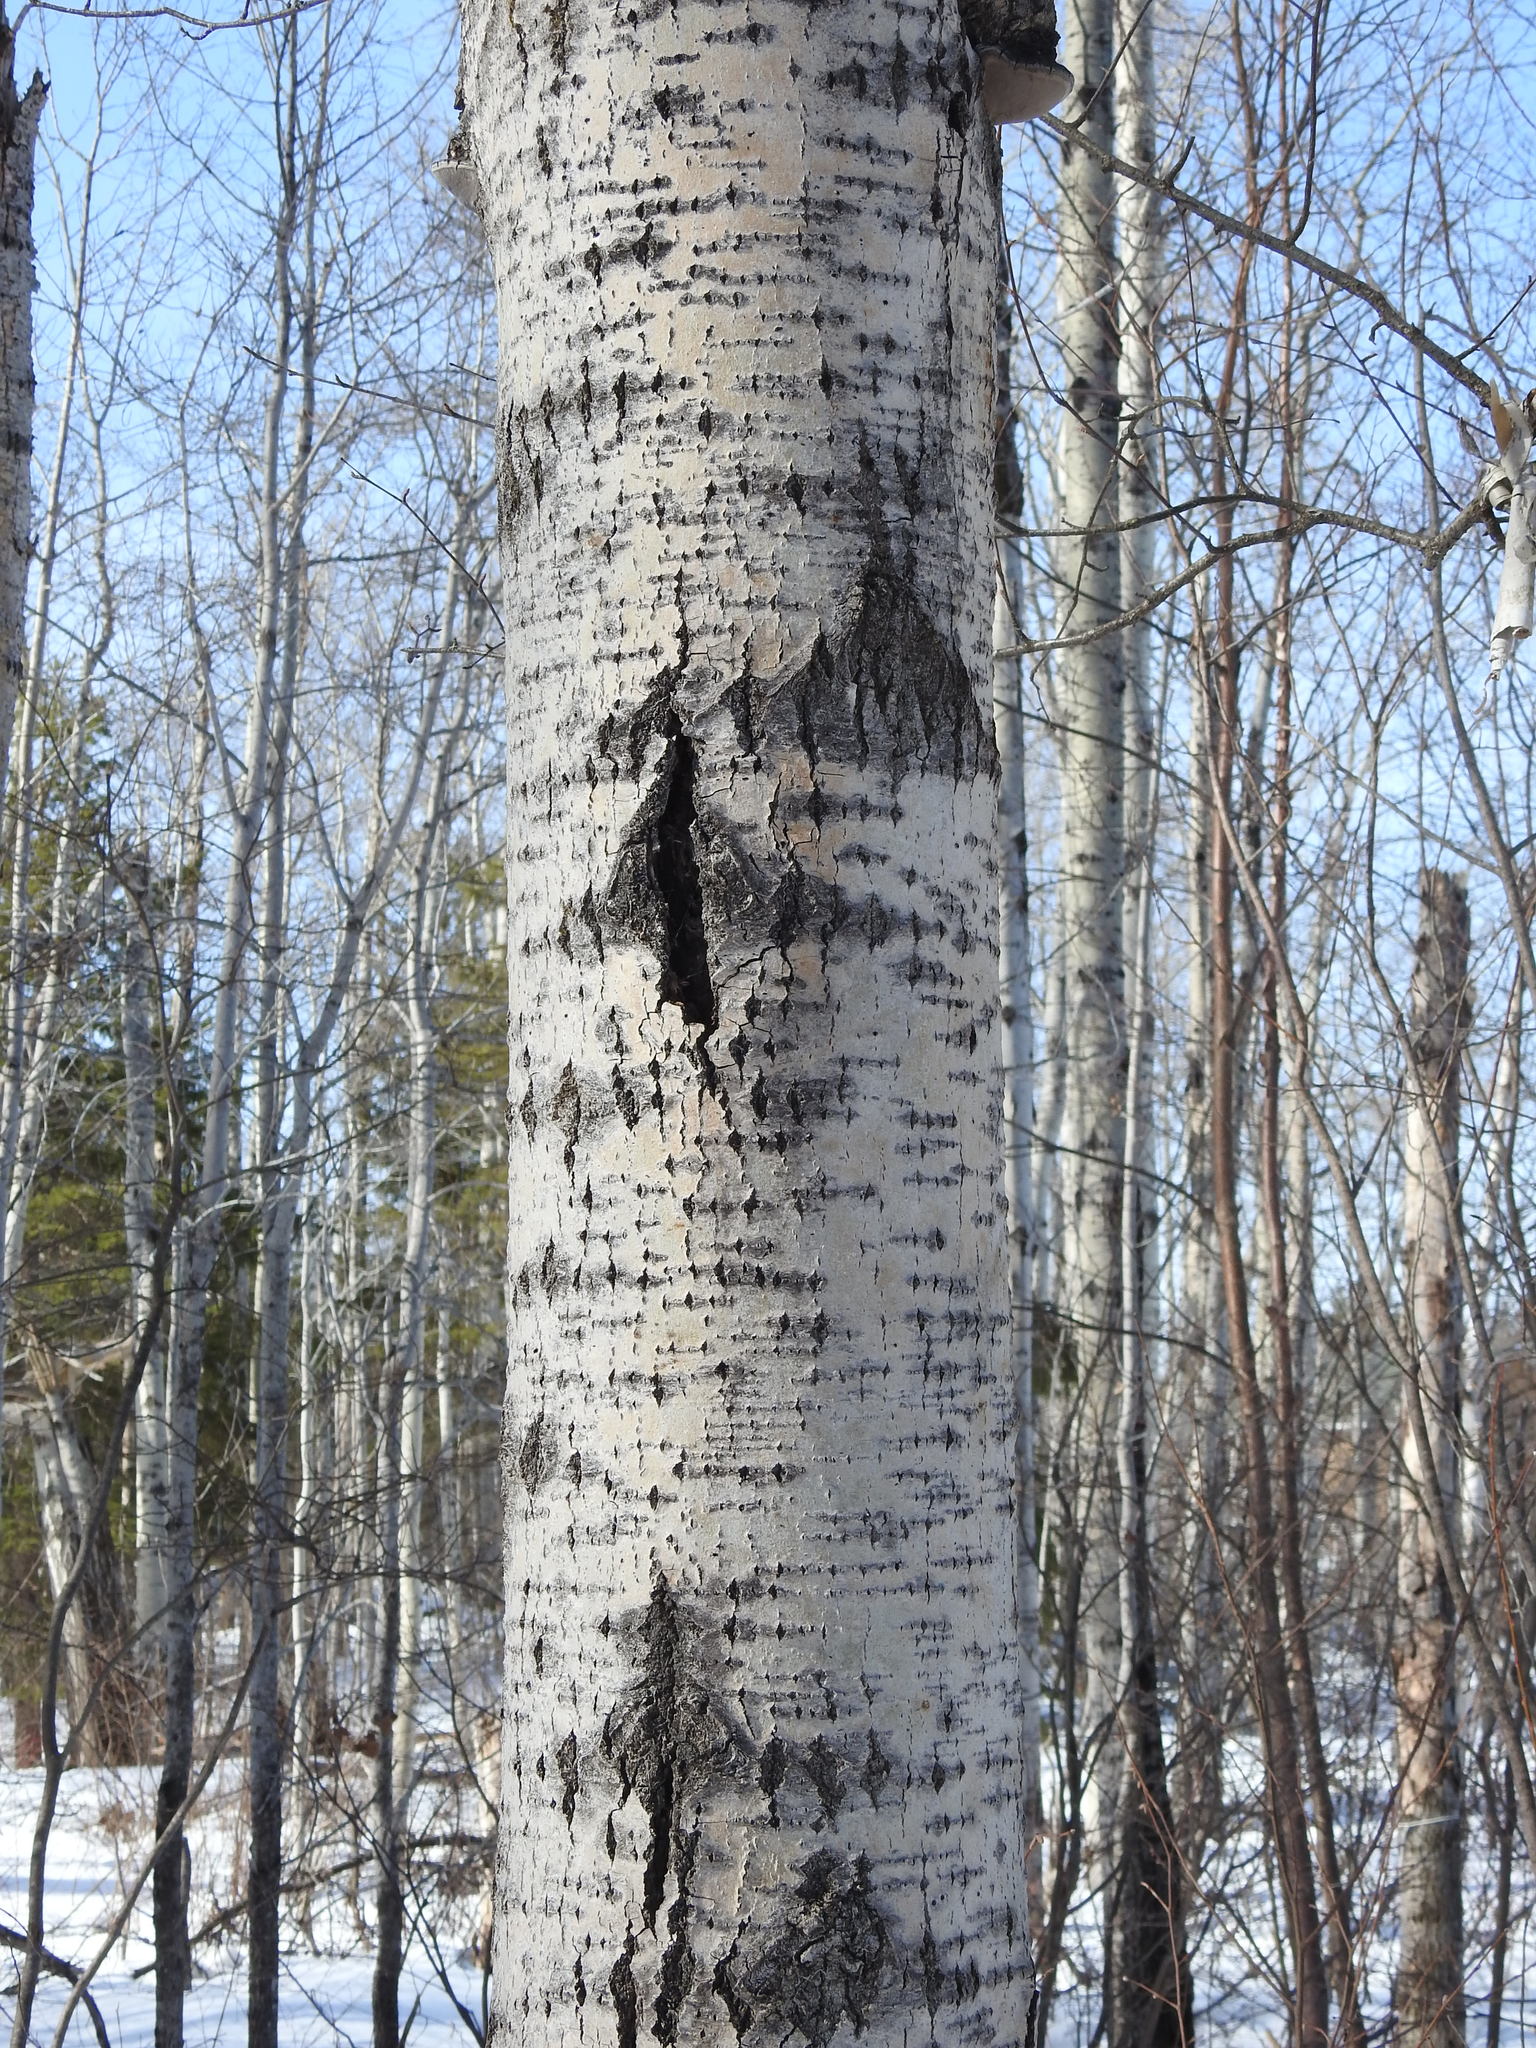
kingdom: Plantae
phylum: Tracheophyta
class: Magnoliopsida
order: Malpighiales
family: Salicaceae
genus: Populus
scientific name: Populus tremuloides
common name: Quaking aspen
